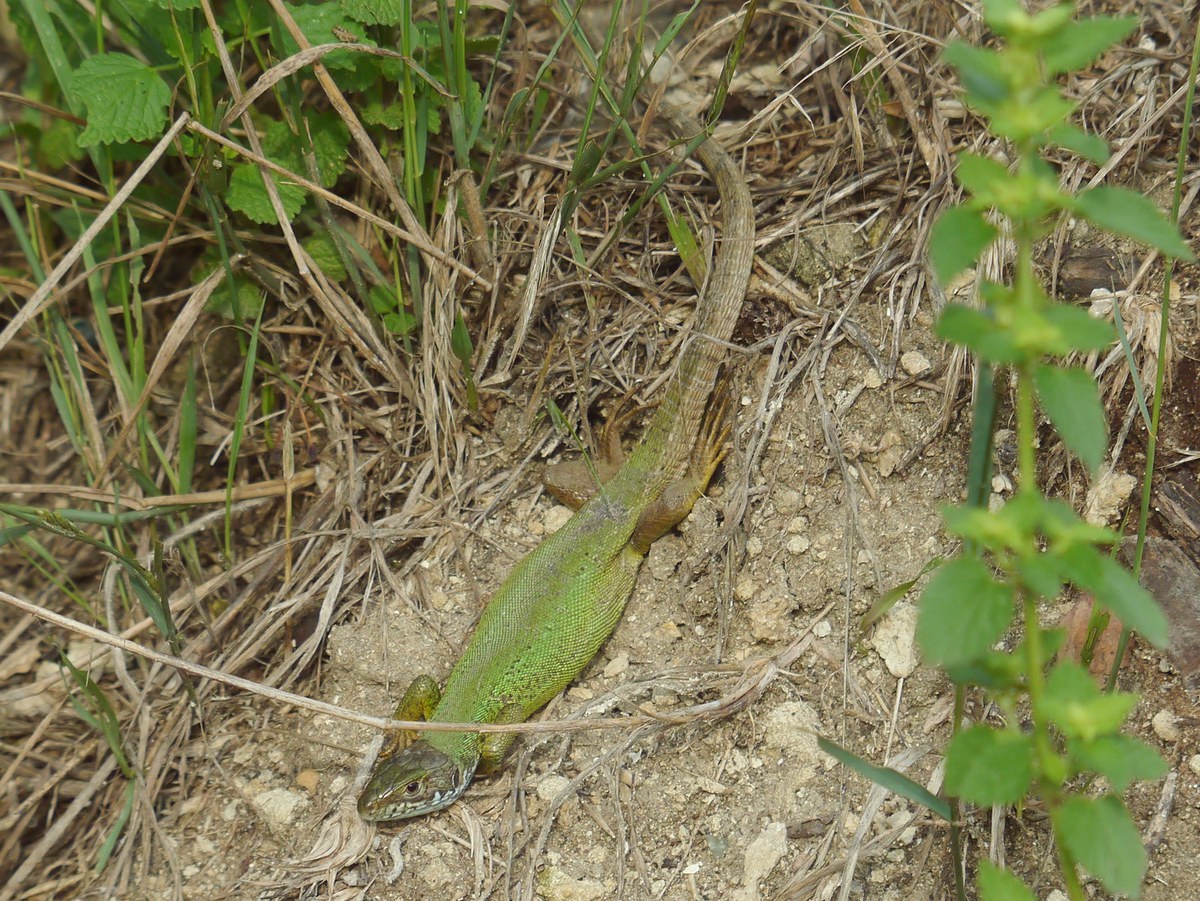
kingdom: Animalia
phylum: Chordata
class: Squamata
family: Lacertidae
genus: Lacerta
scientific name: Lacerta viridis
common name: European green lizard
